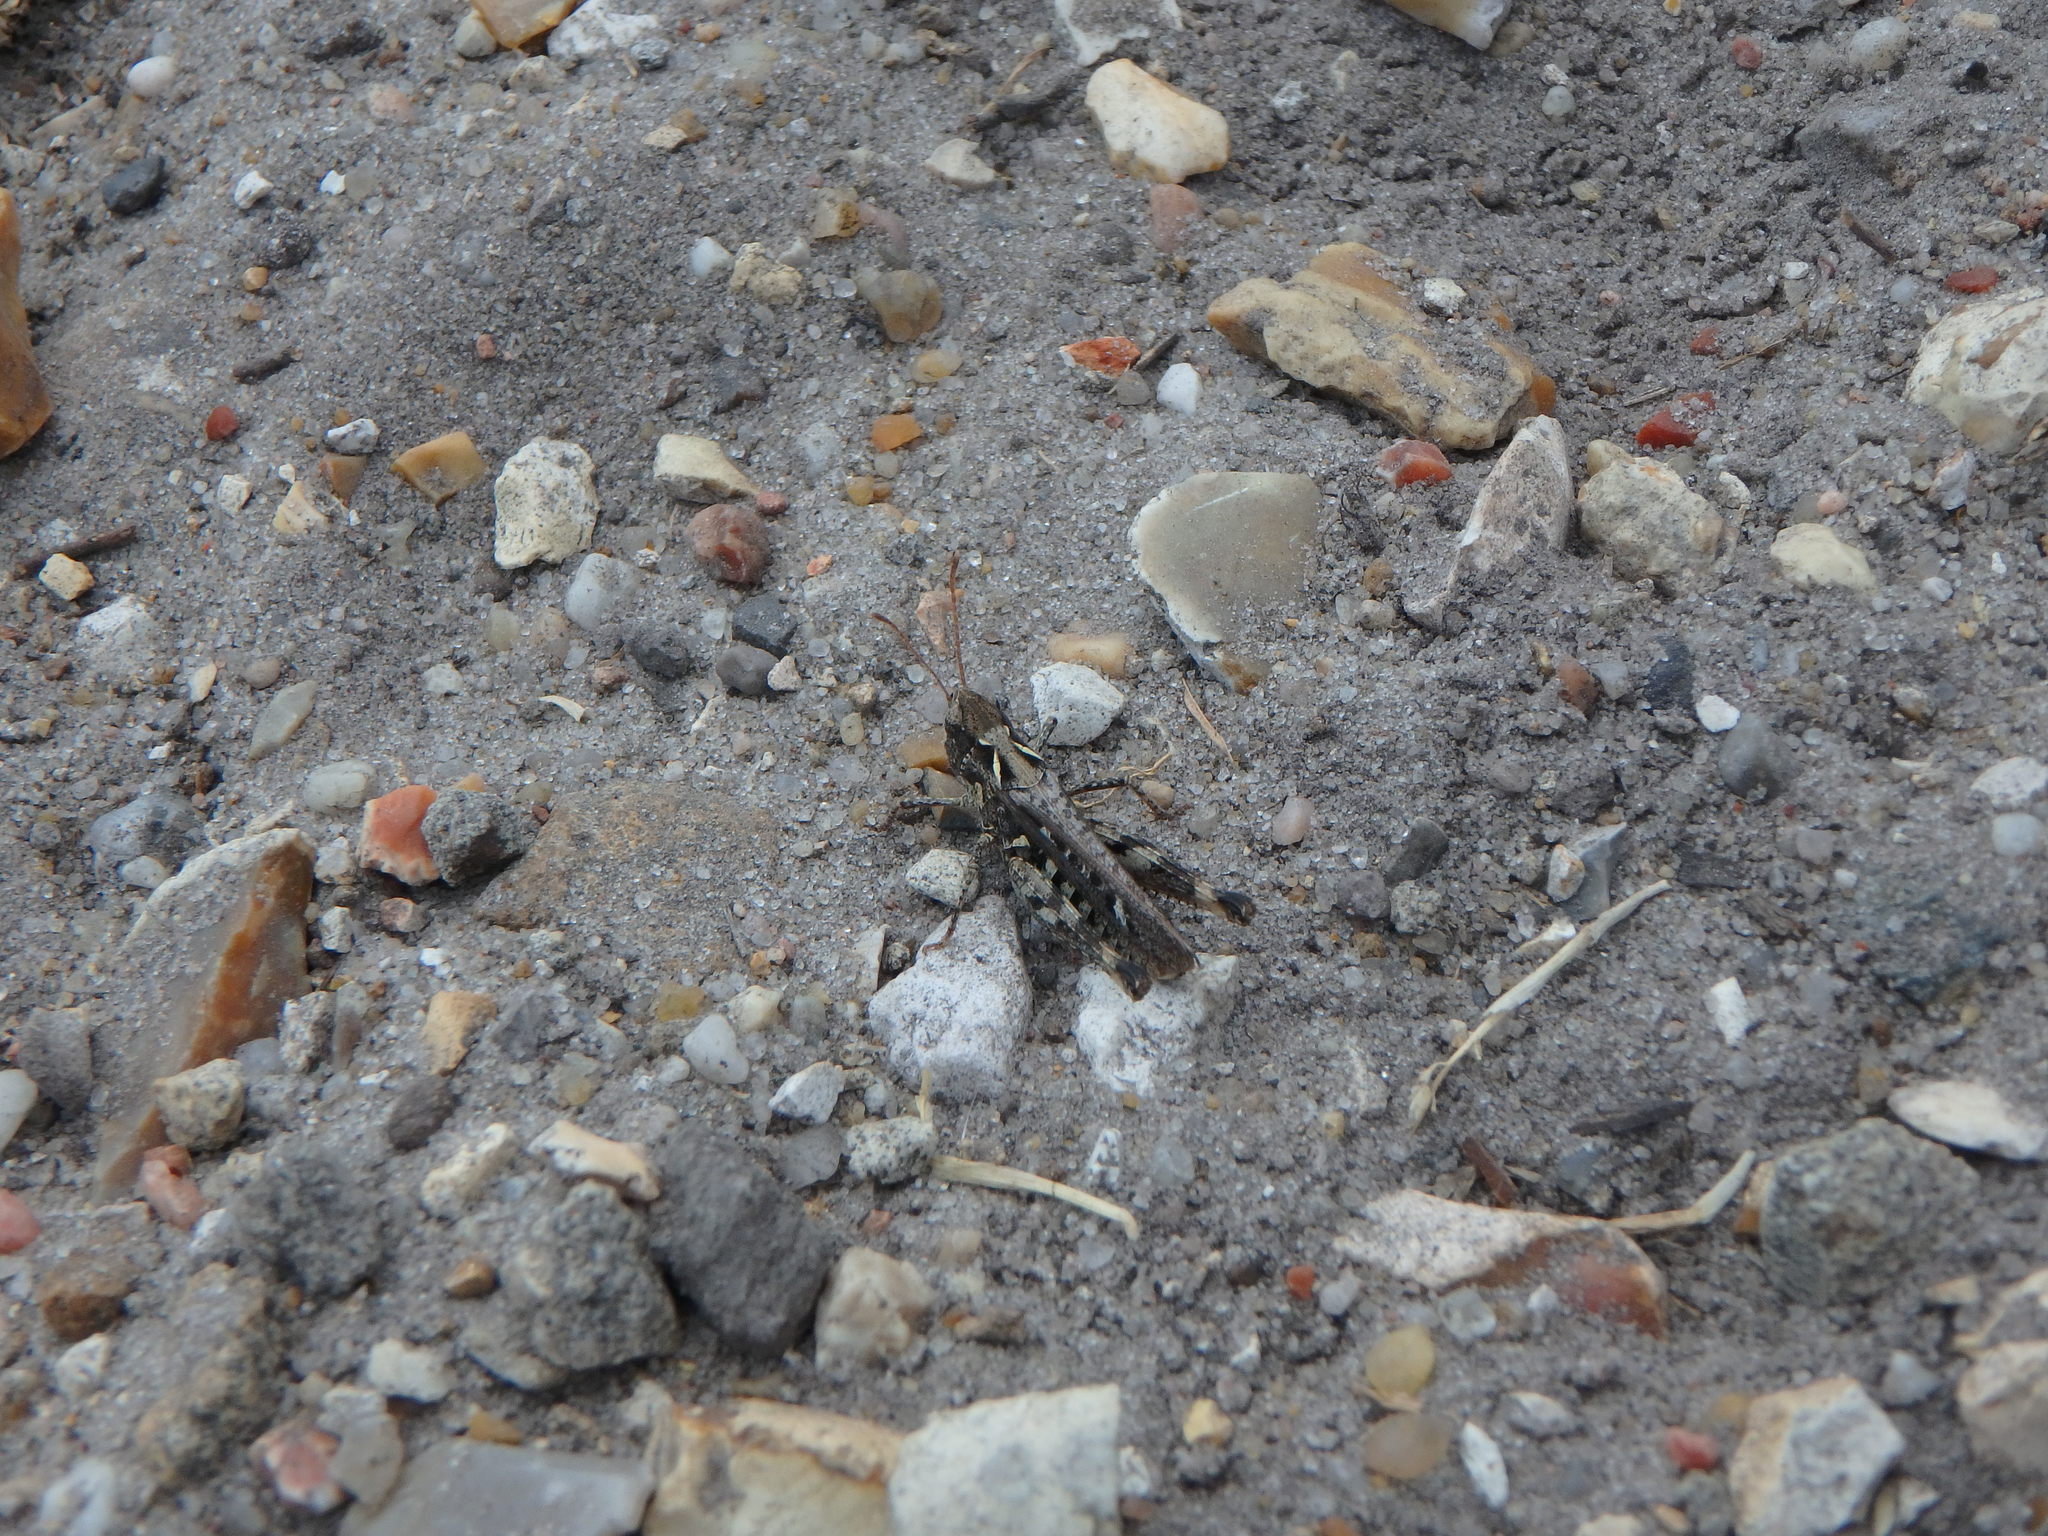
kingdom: Animalia
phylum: Arthropoda
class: Insecta
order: Orthoptera
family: Acrididae
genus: Myrmeleotettix
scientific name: Myrmeleotettix maculatus
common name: Mottled grasshopper
